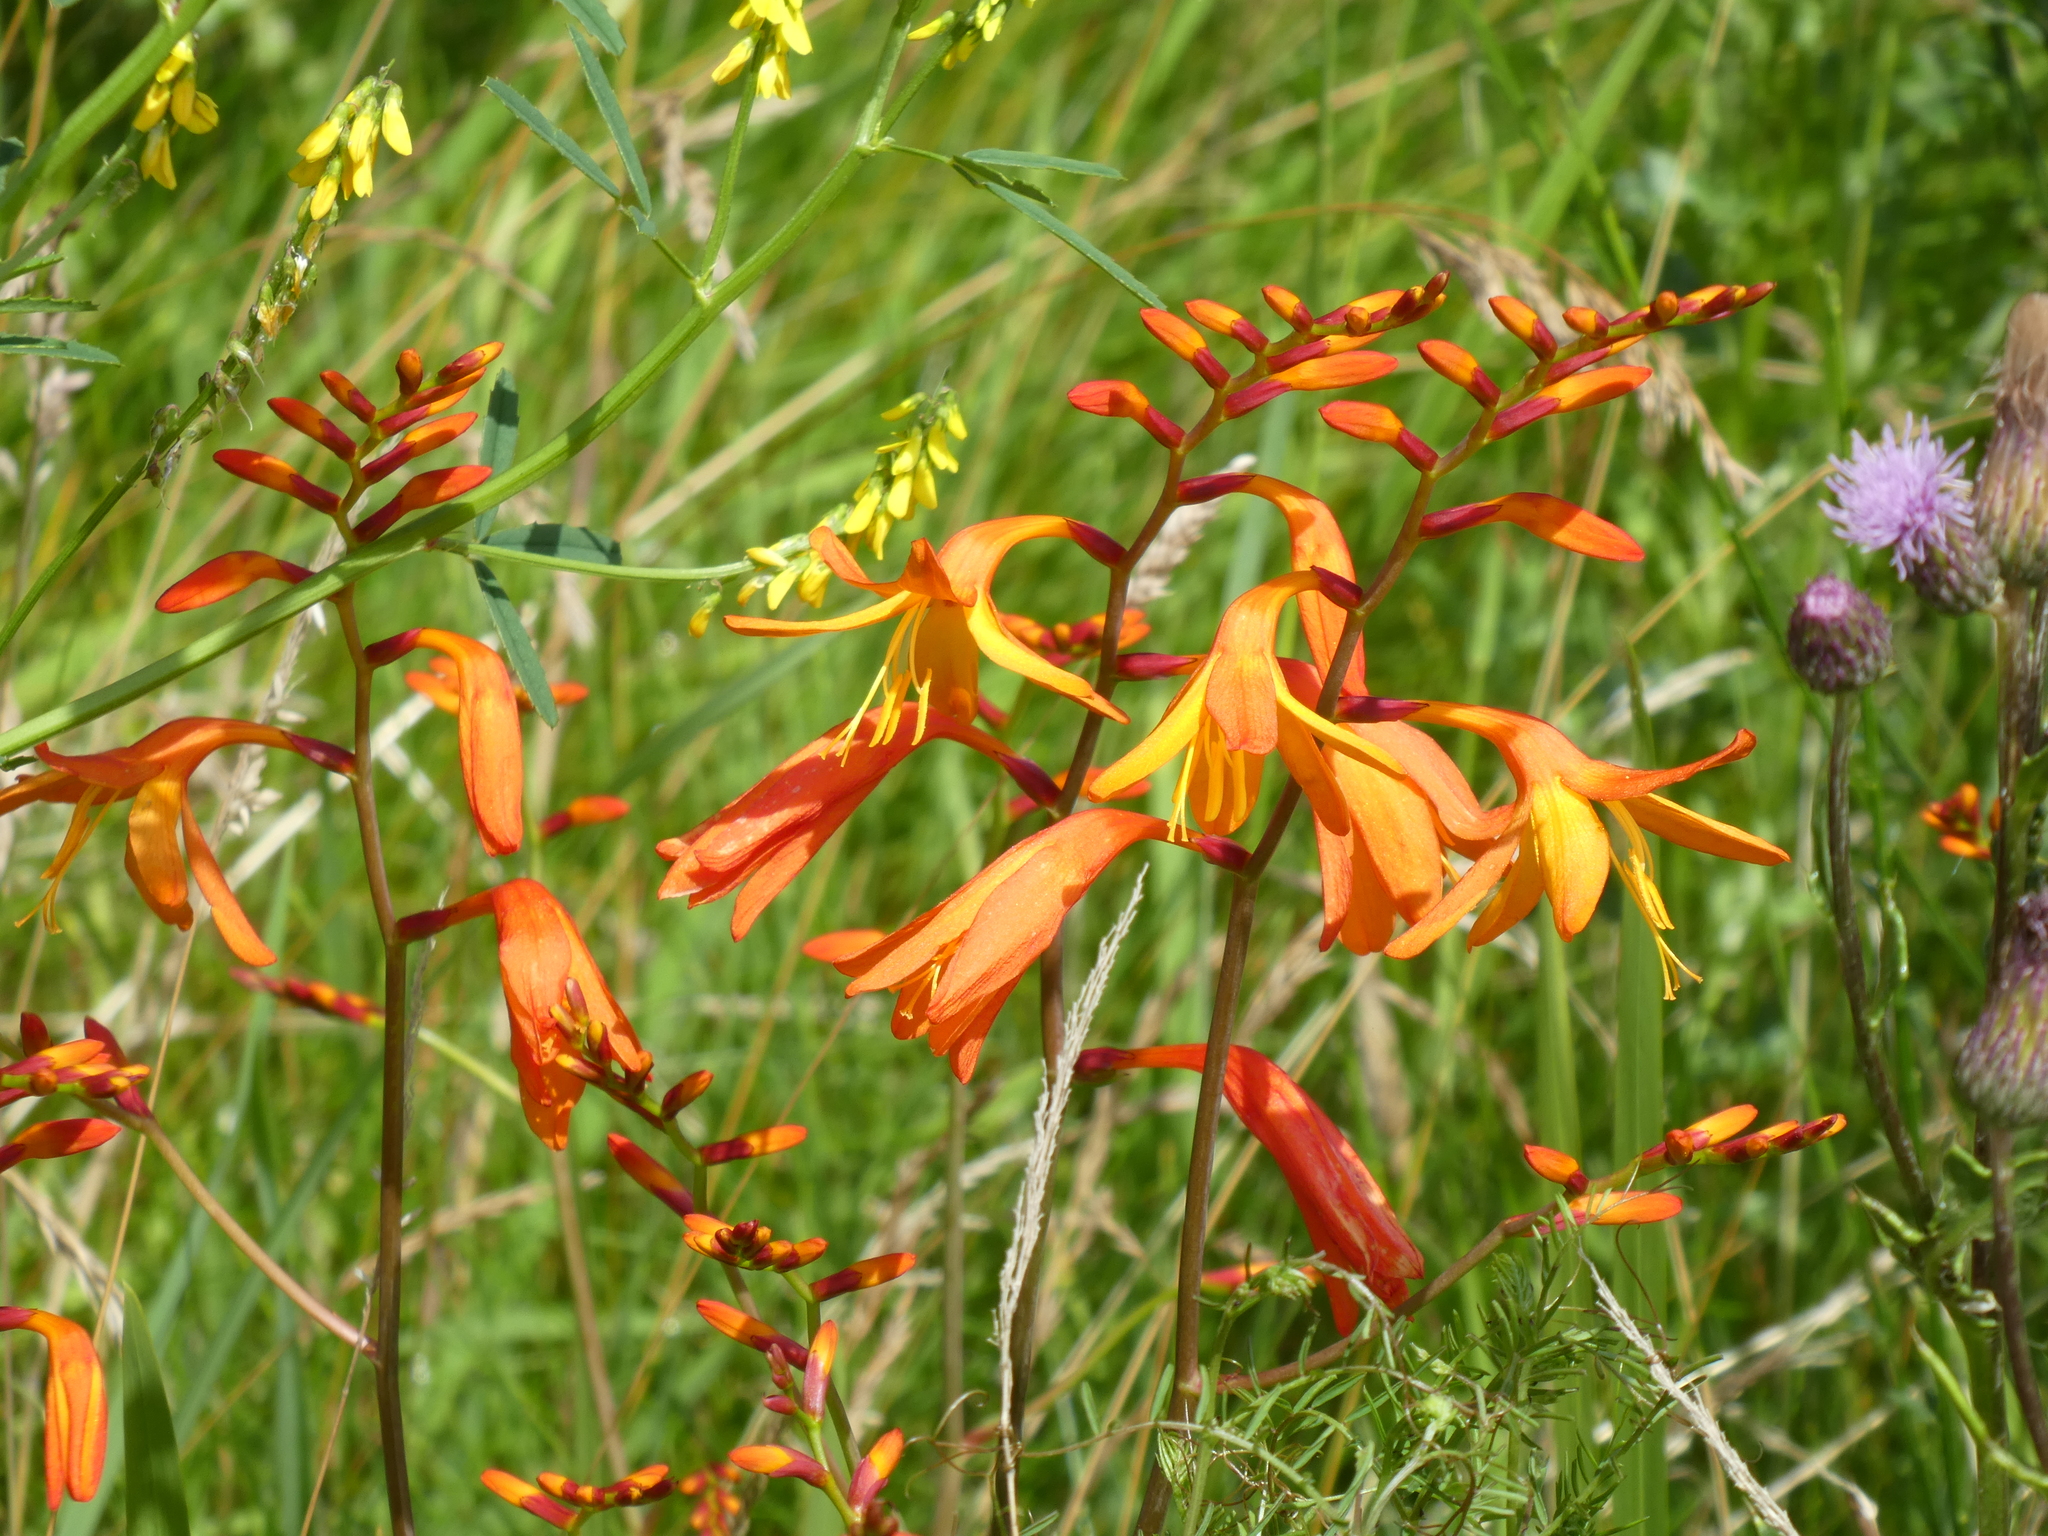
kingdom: Plantae
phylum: Tracheophyta
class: Liliopsida
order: Asparagales
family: Iridaceae
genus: Crocosmia
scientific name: Crocosmia crocosmiiflora
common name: Montbretia
